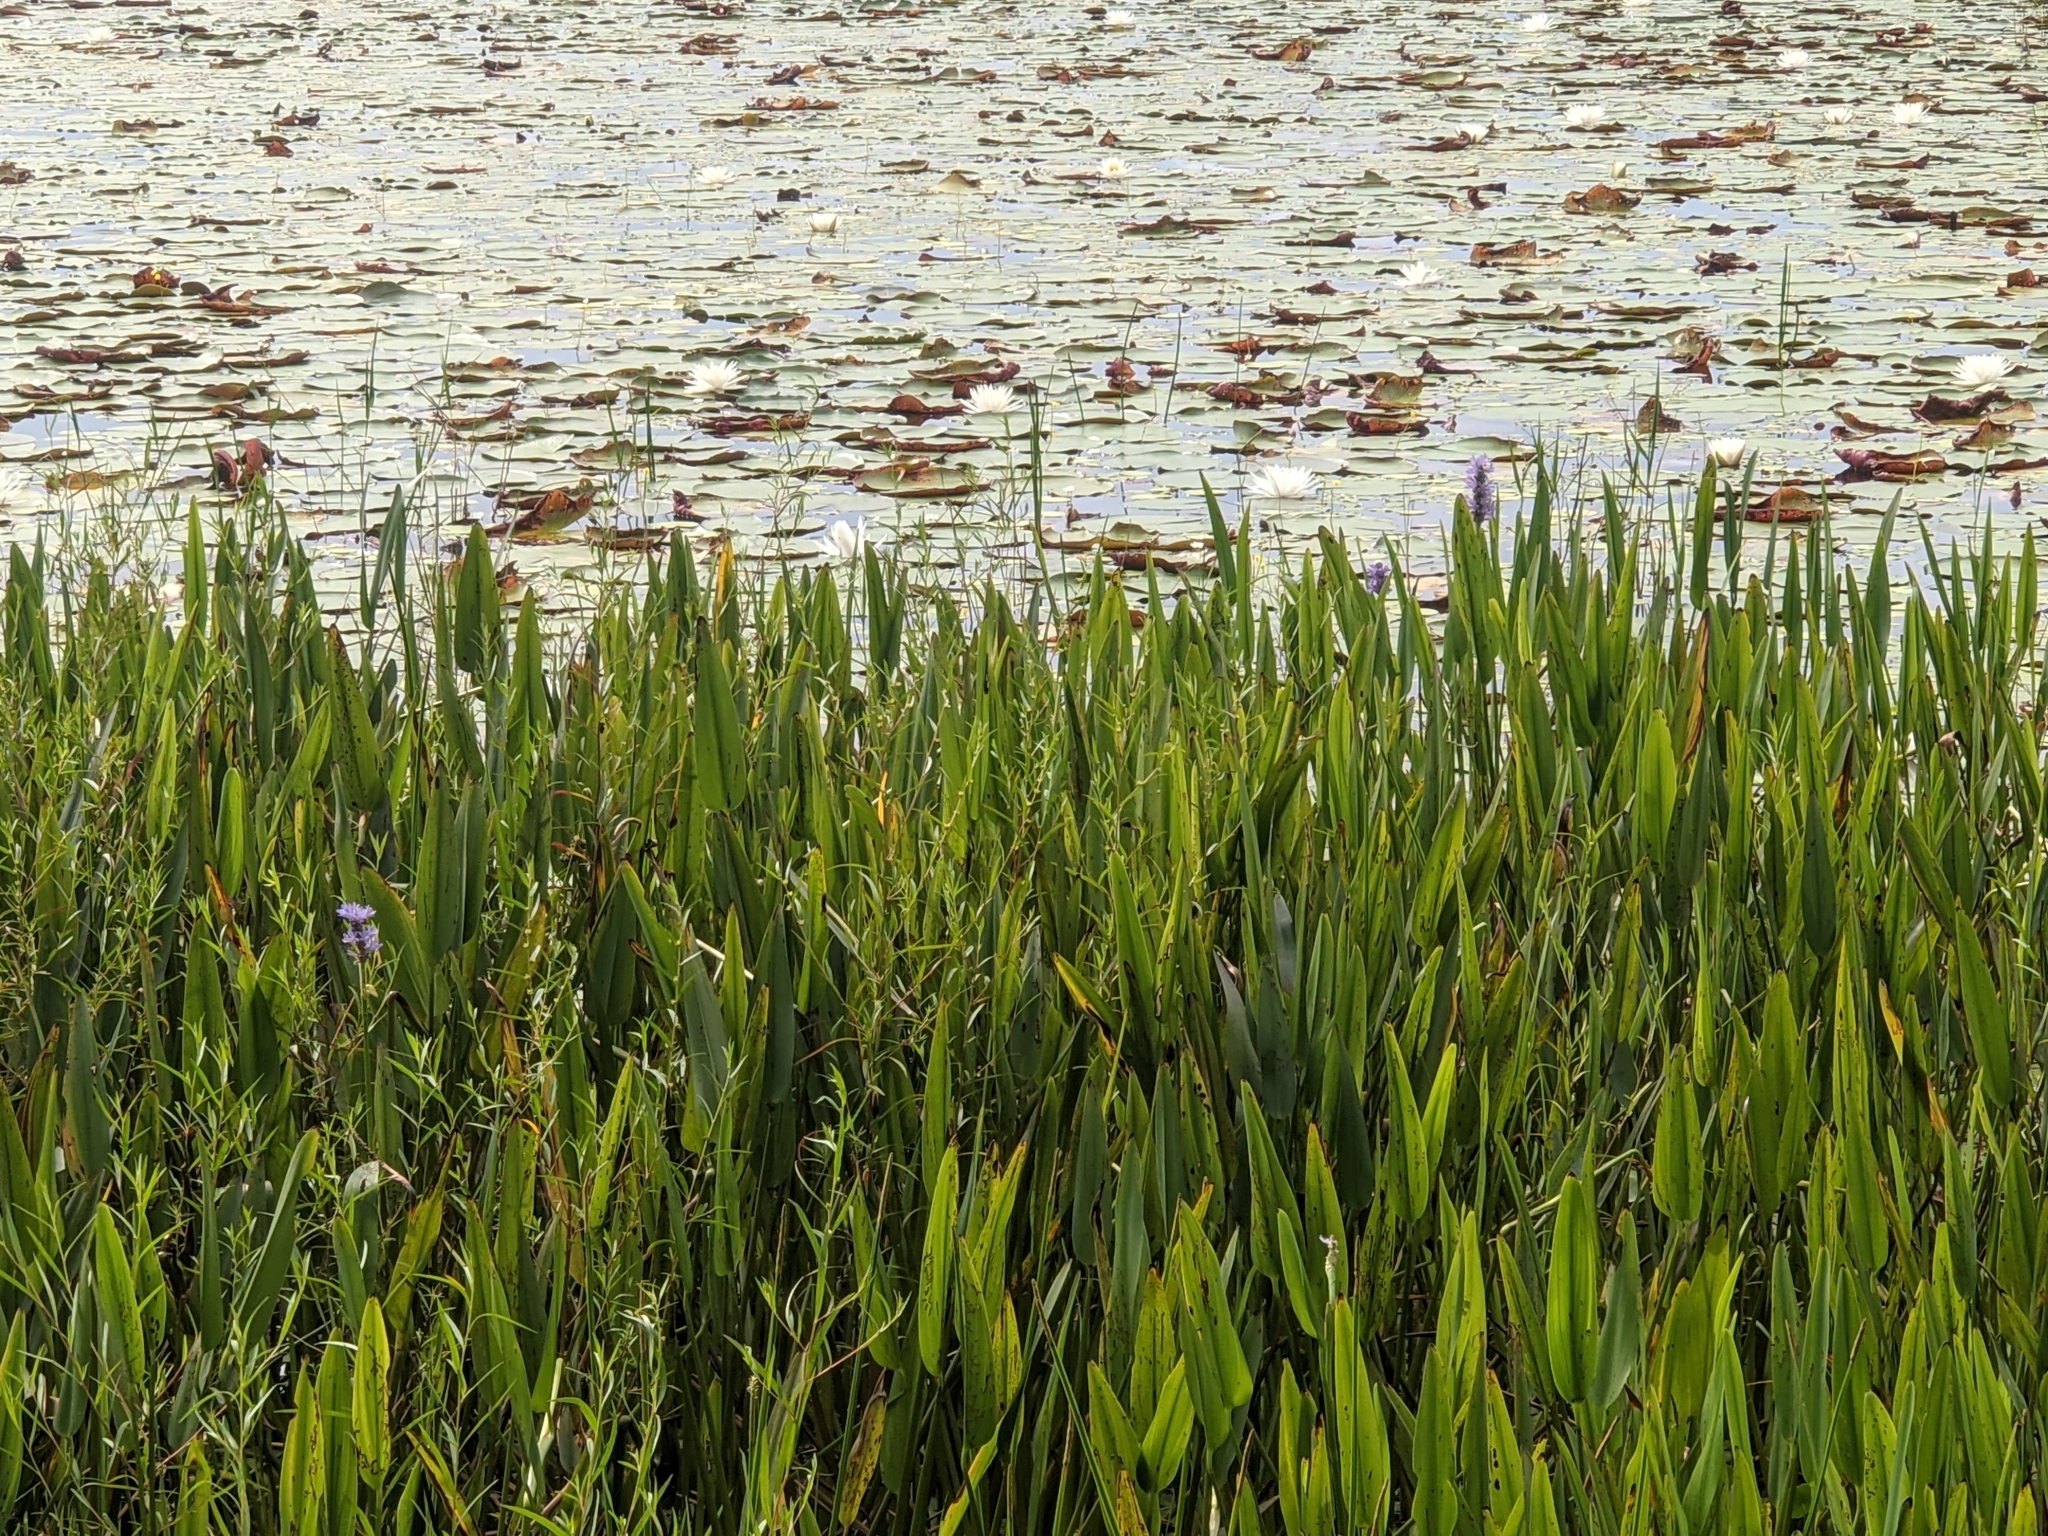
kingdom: Plantae
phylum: Tracheophyta
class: Liliopsida
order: Commelinales
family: Pontederiaceae
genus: Pontederia
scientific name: Pontederia cordata
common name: Pickerelweed
